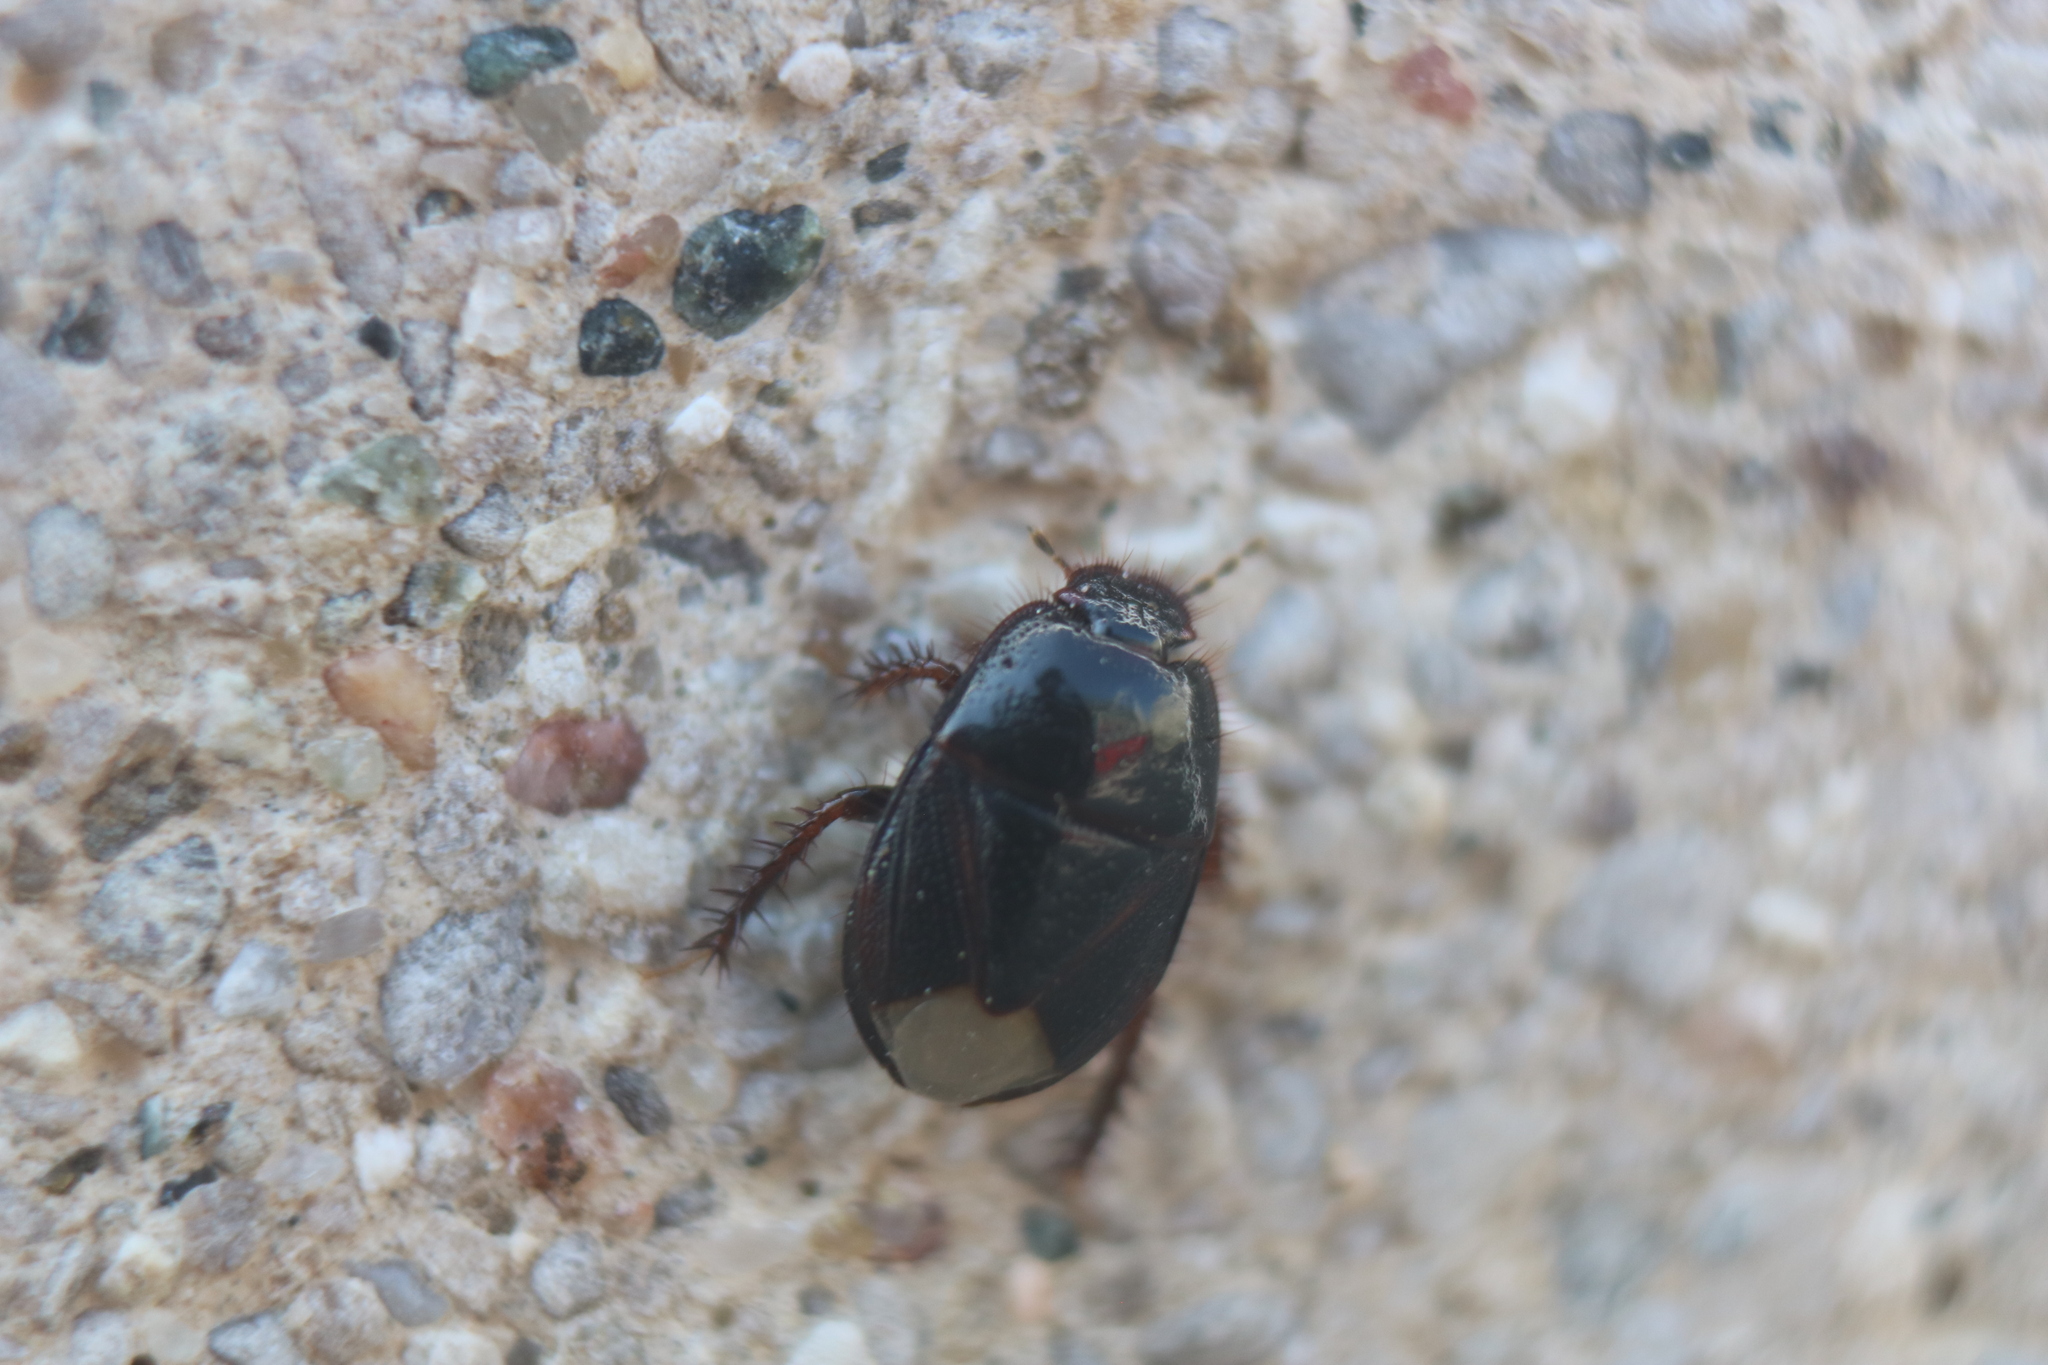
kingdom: Animalia
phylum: Arthropoda
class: Insecta
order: Hemiptera
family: Cydnidae
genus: Pangaeus
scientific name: Pangaeus bilineatus
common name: Burrower bug
